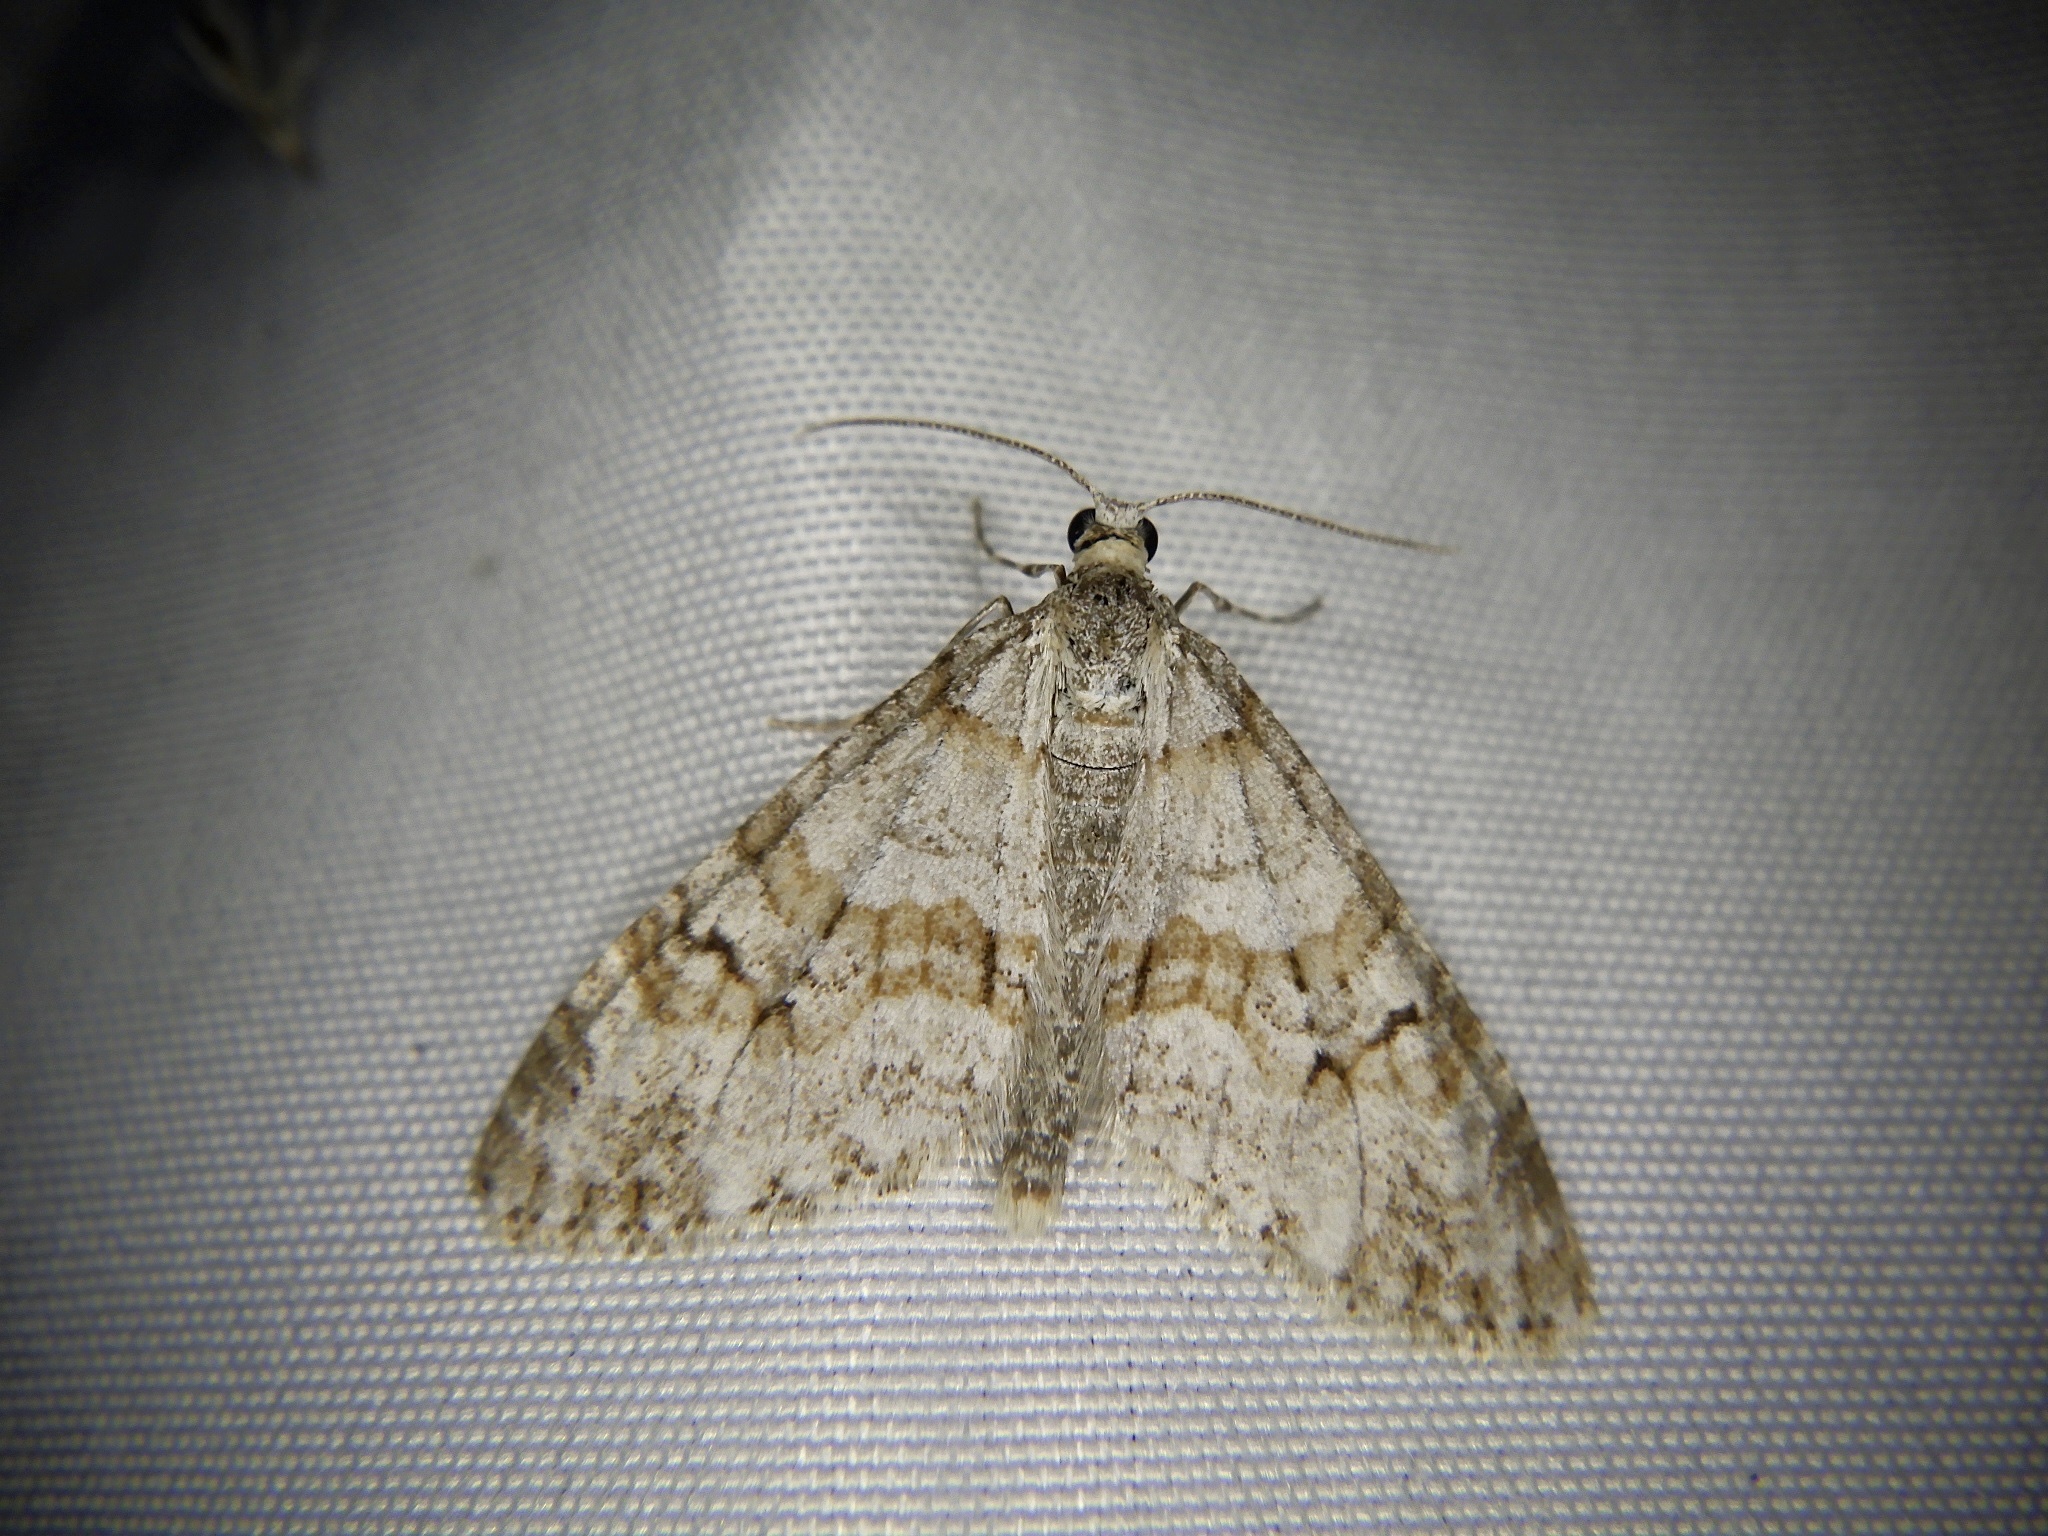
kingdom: Animalia
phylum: Arthropoda
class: Insecta
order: Lepidoptera
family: Geometridae
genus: Trichopteryx
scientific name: Trichopteryx fastuosa
